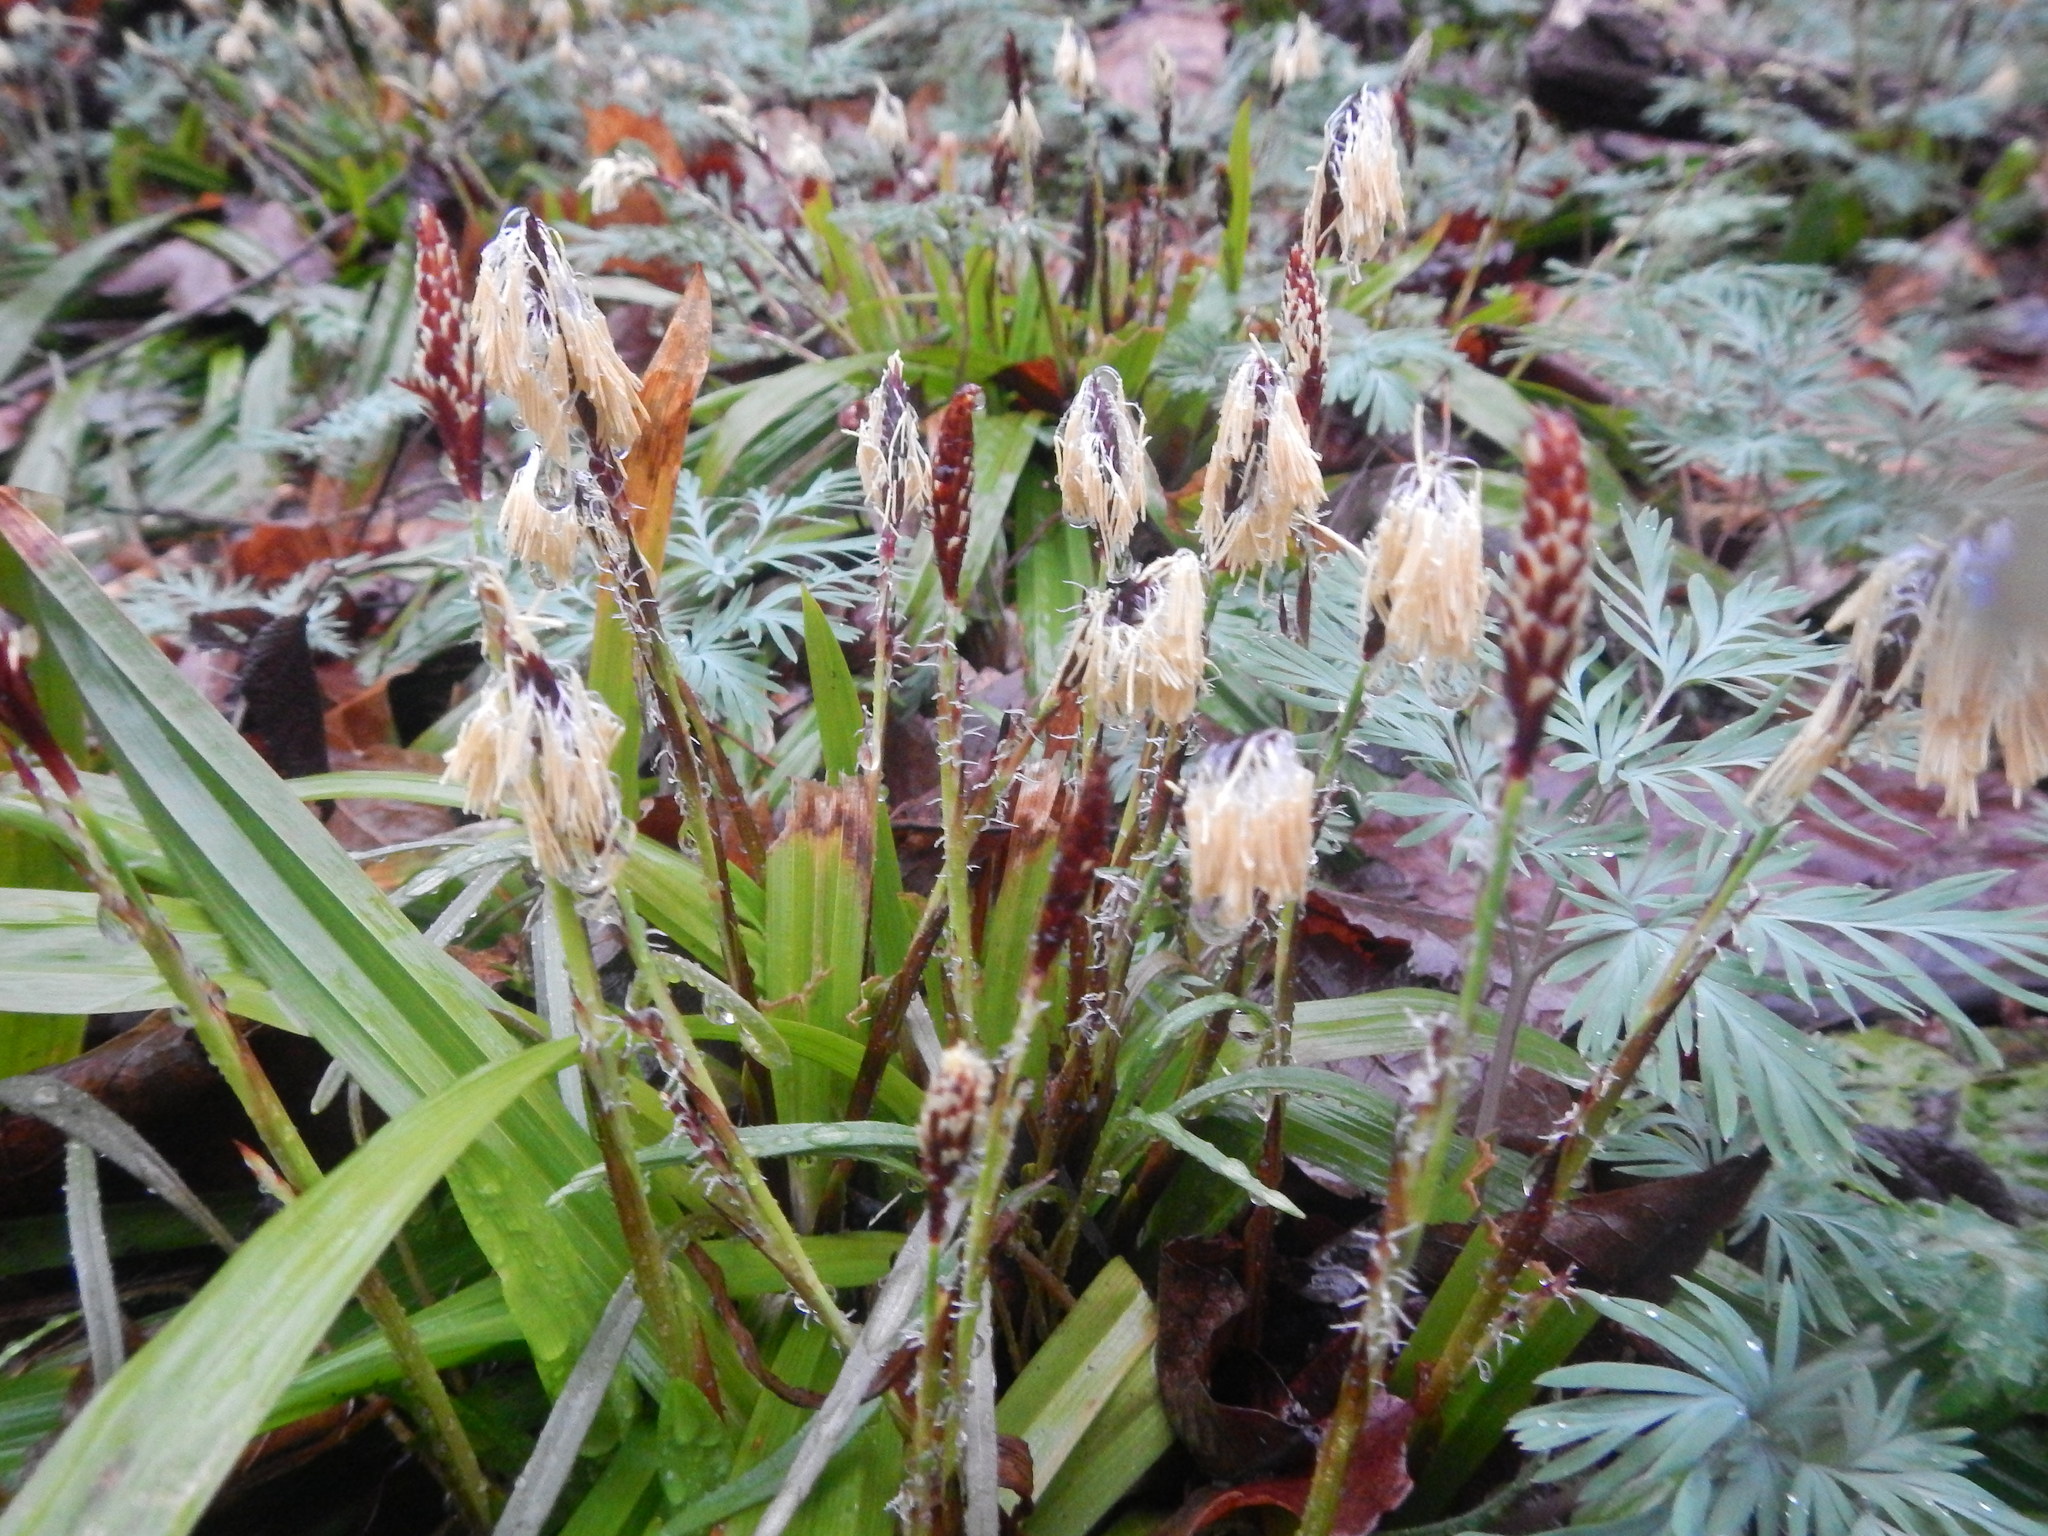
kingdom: Plantae
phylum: Tracheophyta
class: Liliopsida
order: Poales
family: Cyperaceae
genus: Carex
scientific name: Carex plantaginea
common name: Plantain-leaved sedge
